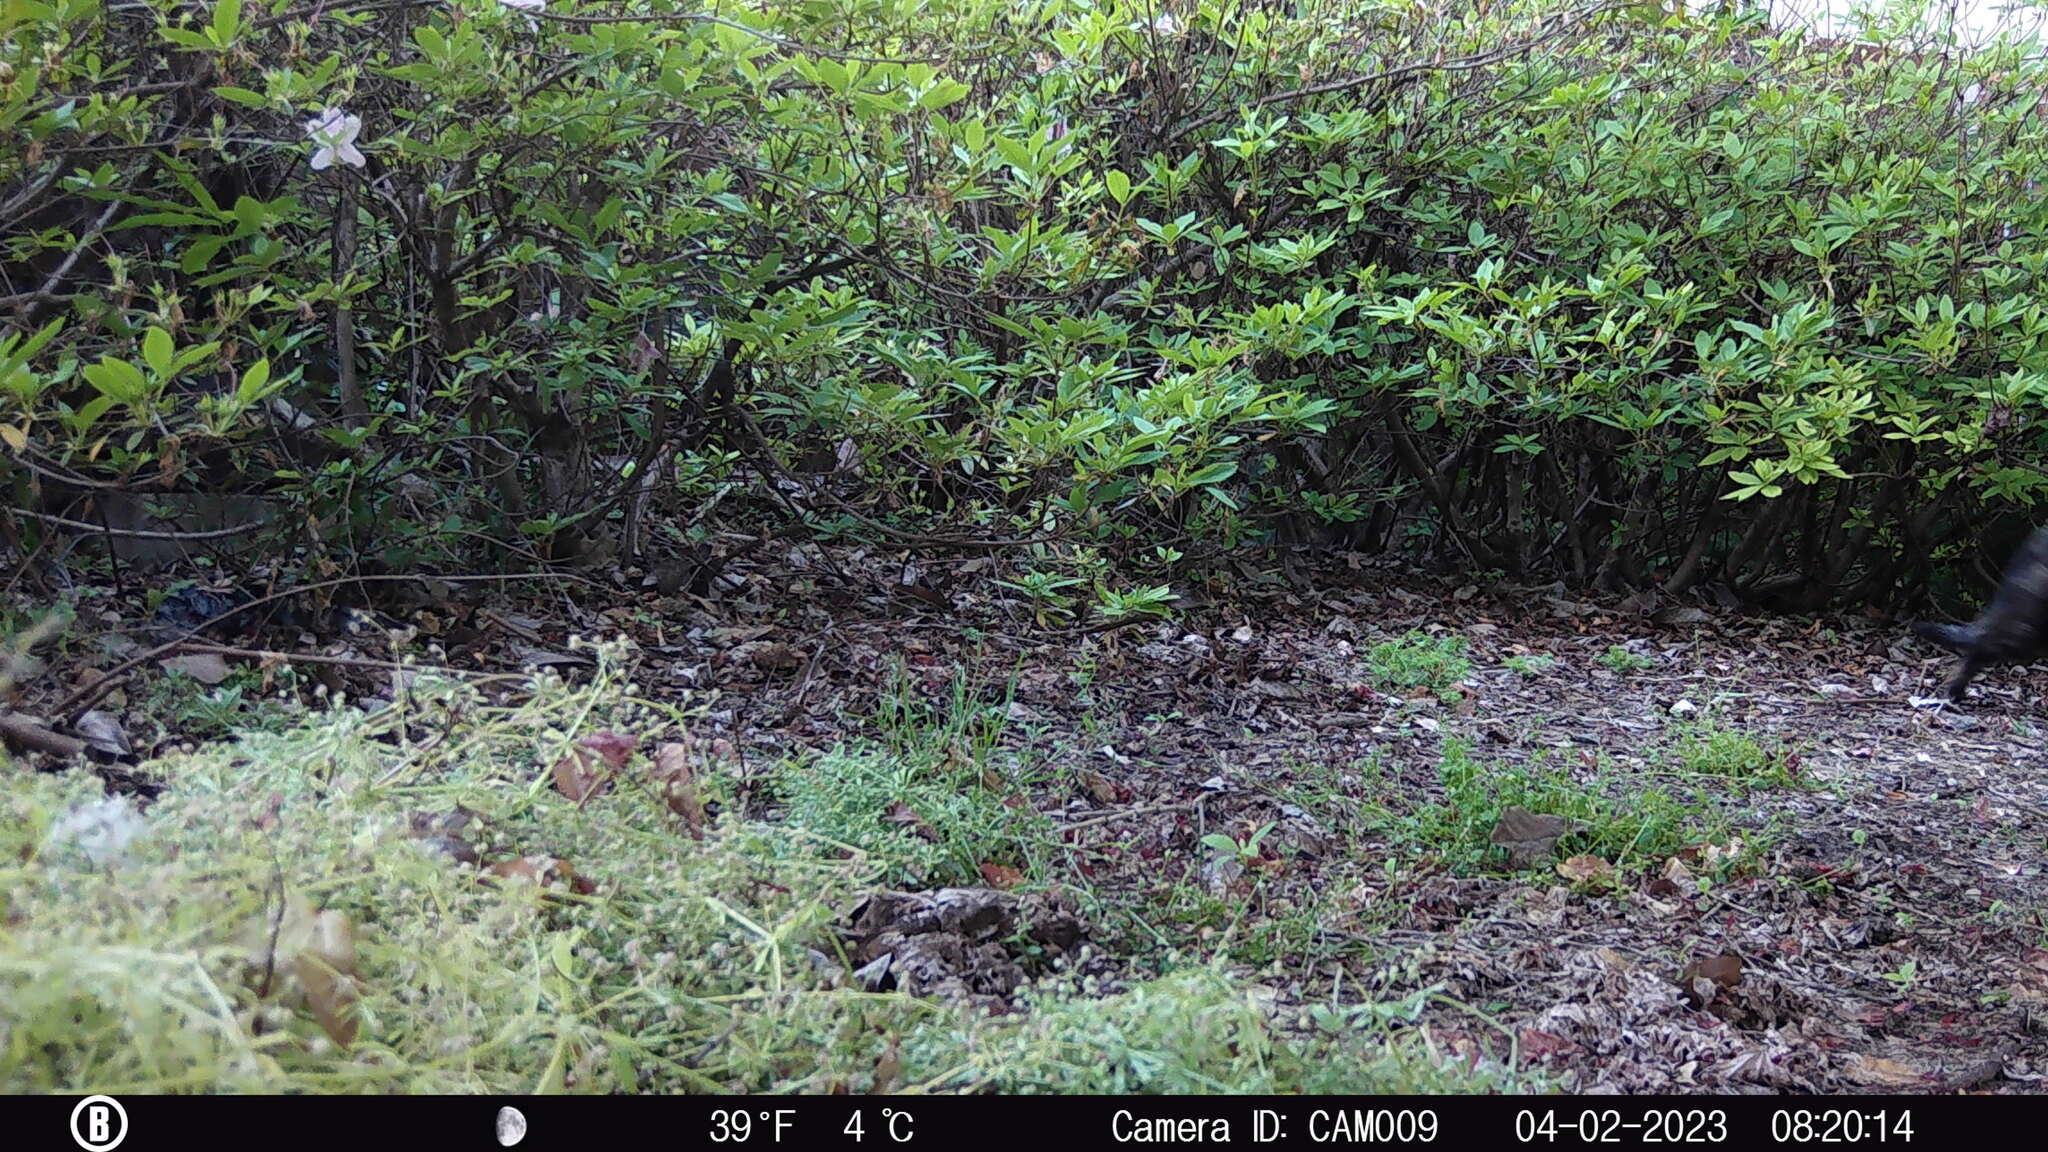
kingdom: Animalia
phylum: Chordata
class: Mammalia
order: Carnivora
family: Felidae
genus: Felis
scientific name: Felis catus
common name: Domestic cat
